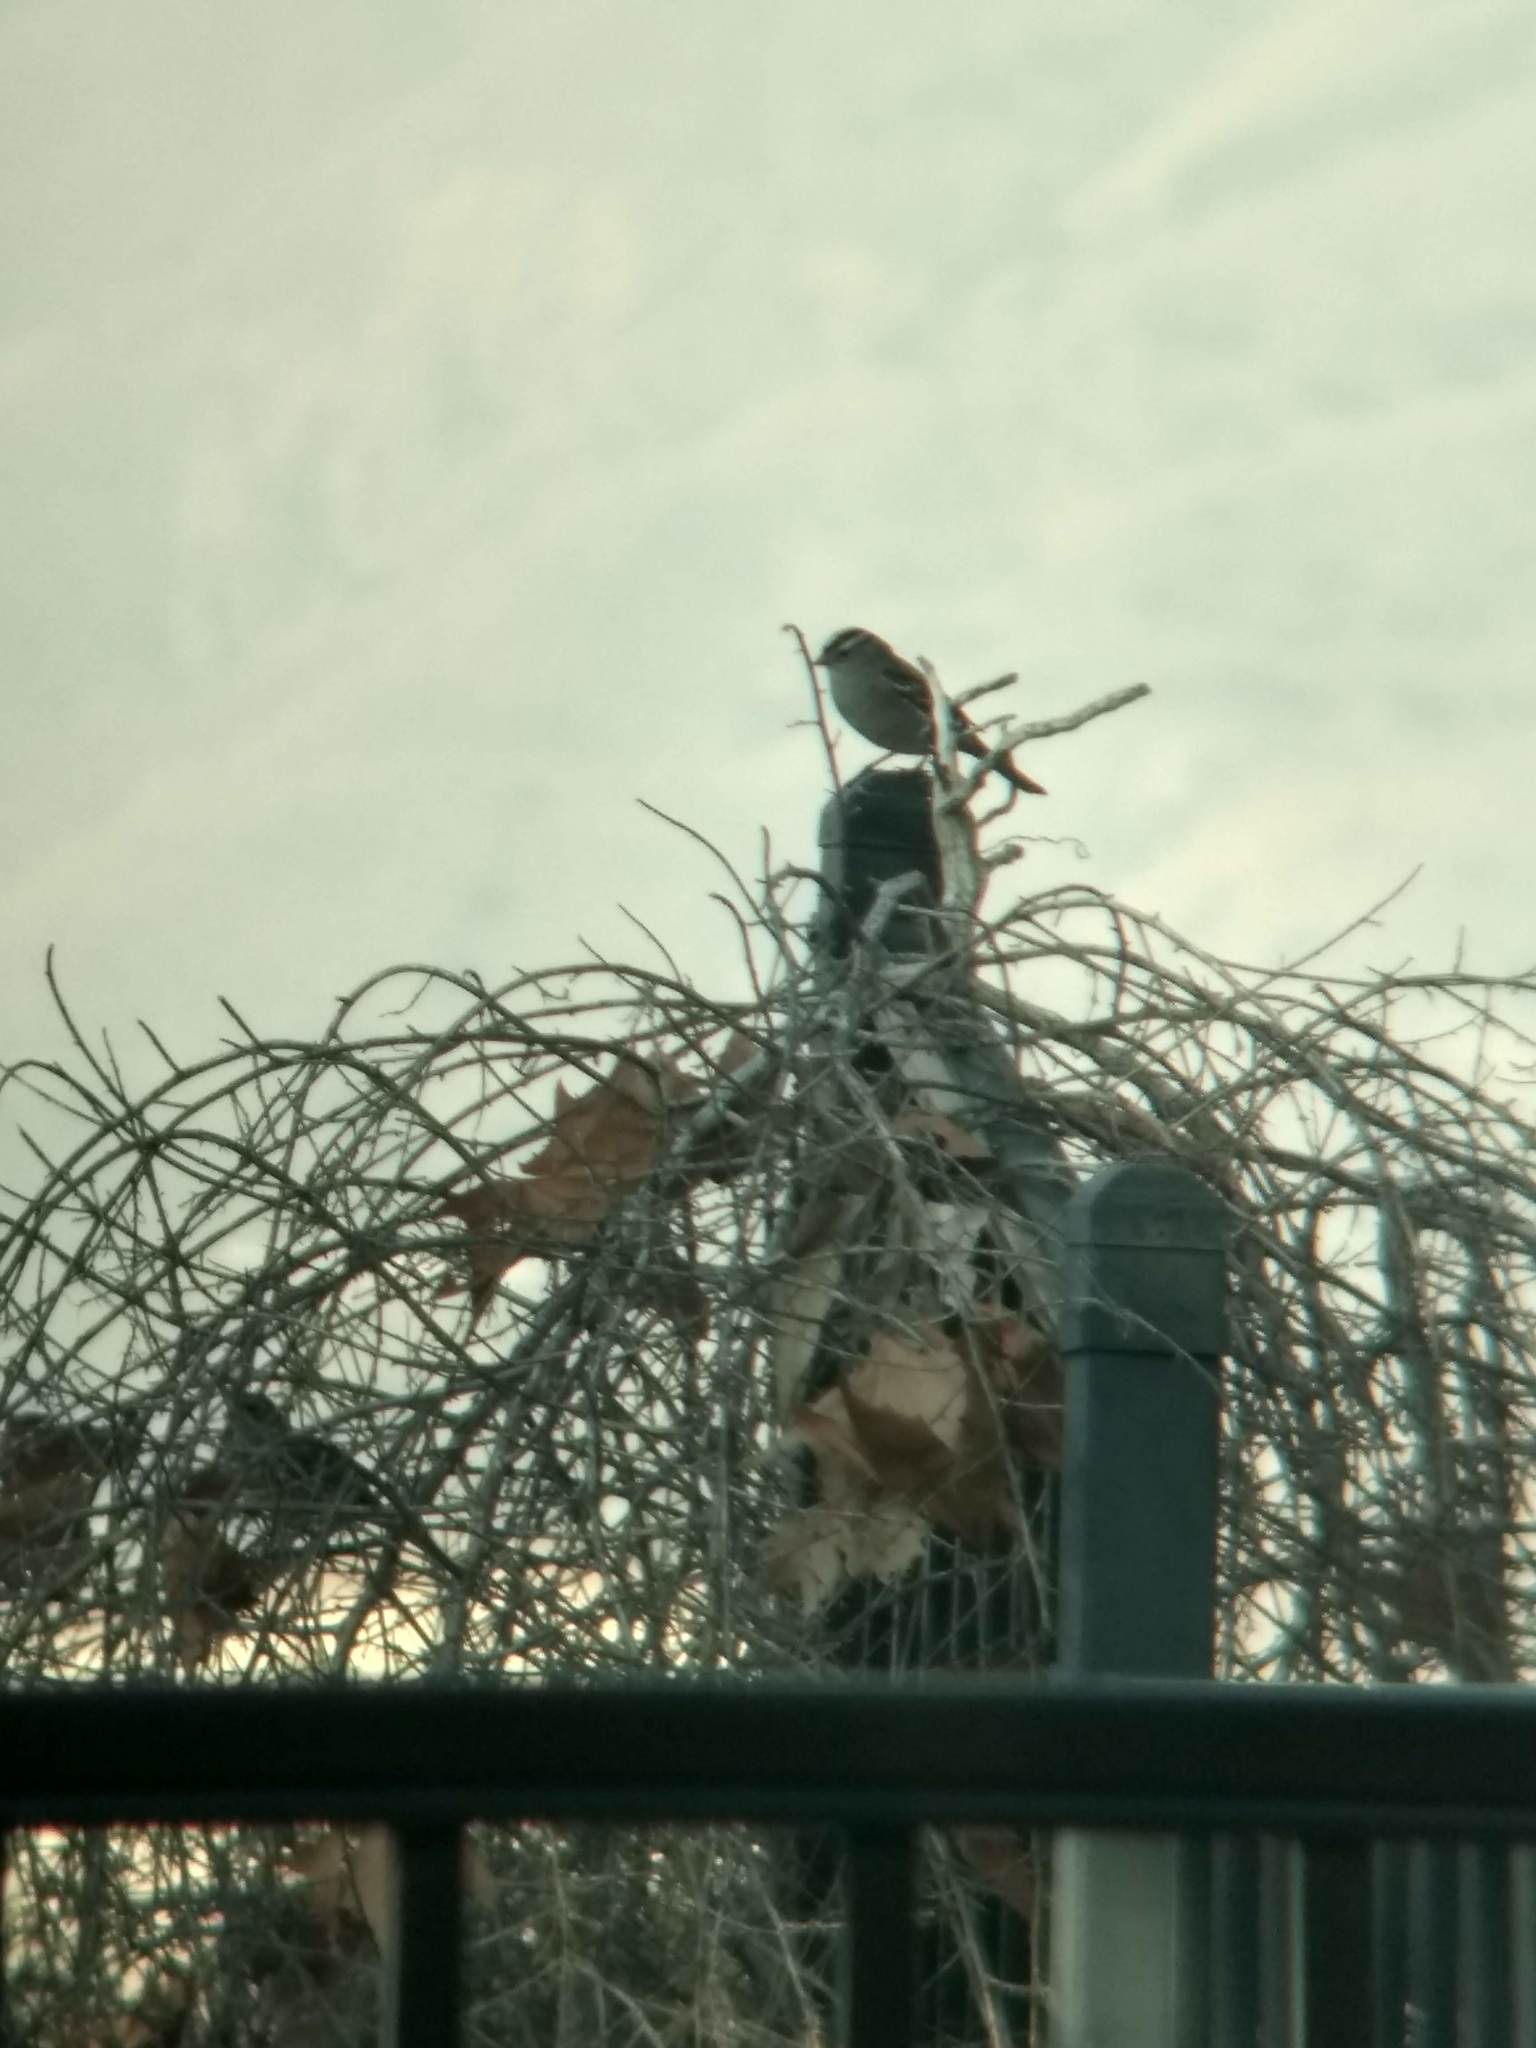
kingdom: Animalia
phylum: Chordata
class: Aves
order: Passeriformes
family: Passerellidae
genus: Zonotrichia
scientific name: Zonotrichia leucophrys
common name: White-crowned sparrow
